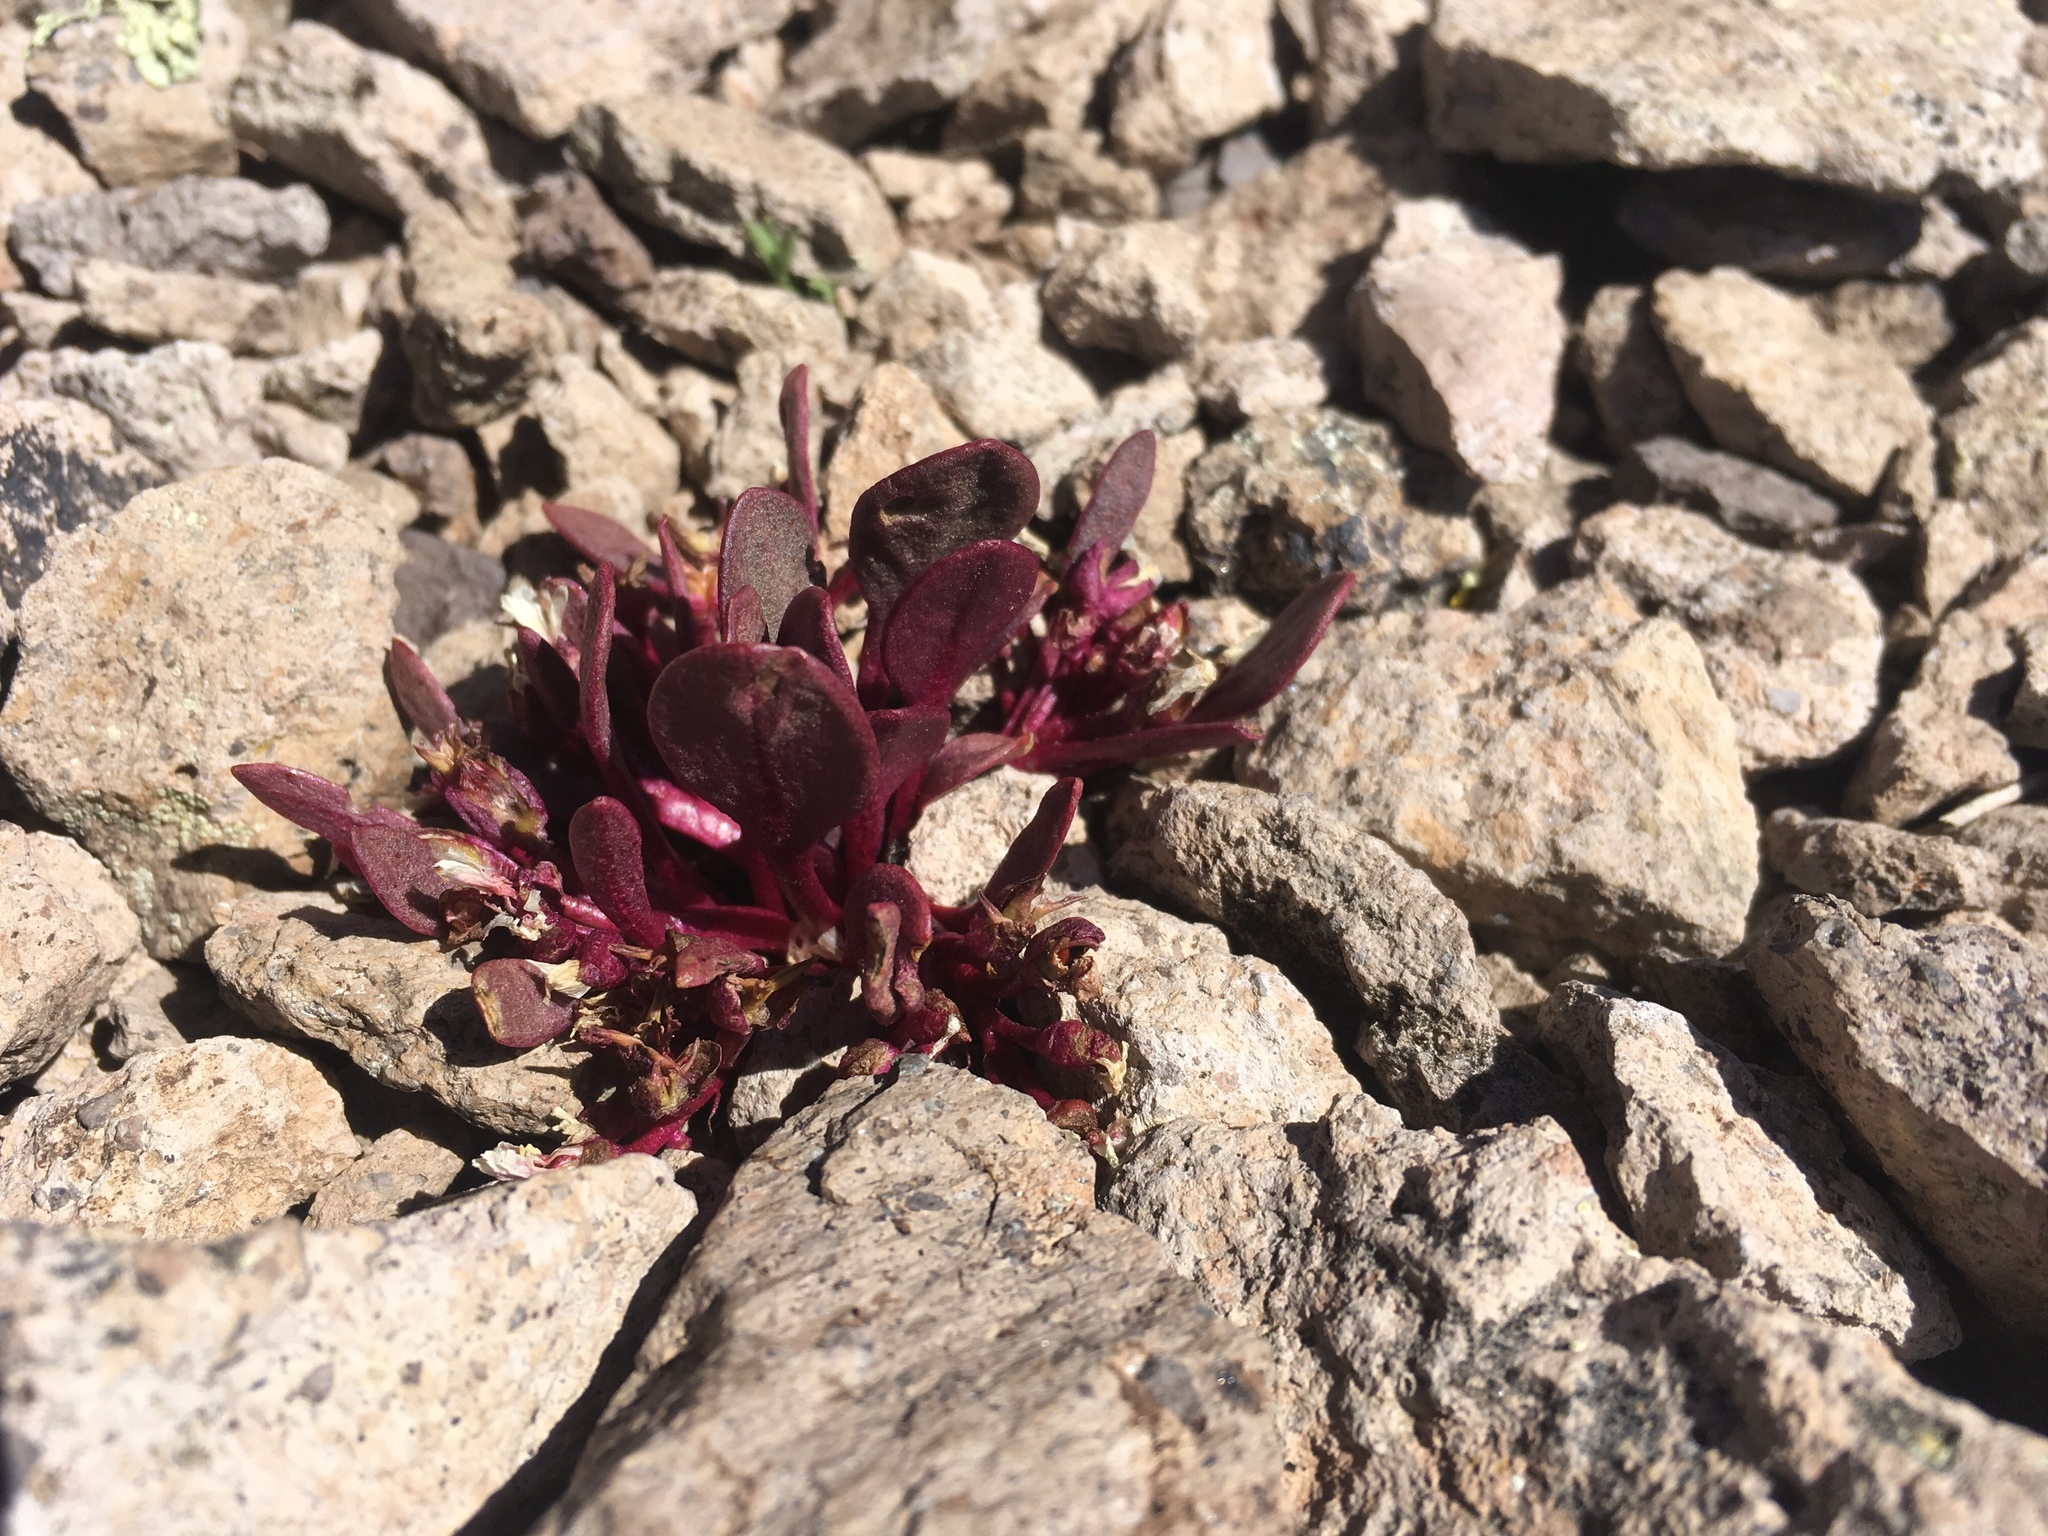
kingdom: Plantae
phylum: Tracheophyta
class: Magnoliopsida
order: Caryophyllales
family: Montiaceae
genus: Claytonia
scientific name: Claytonia megarhiza
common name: Alpine spring beauty
